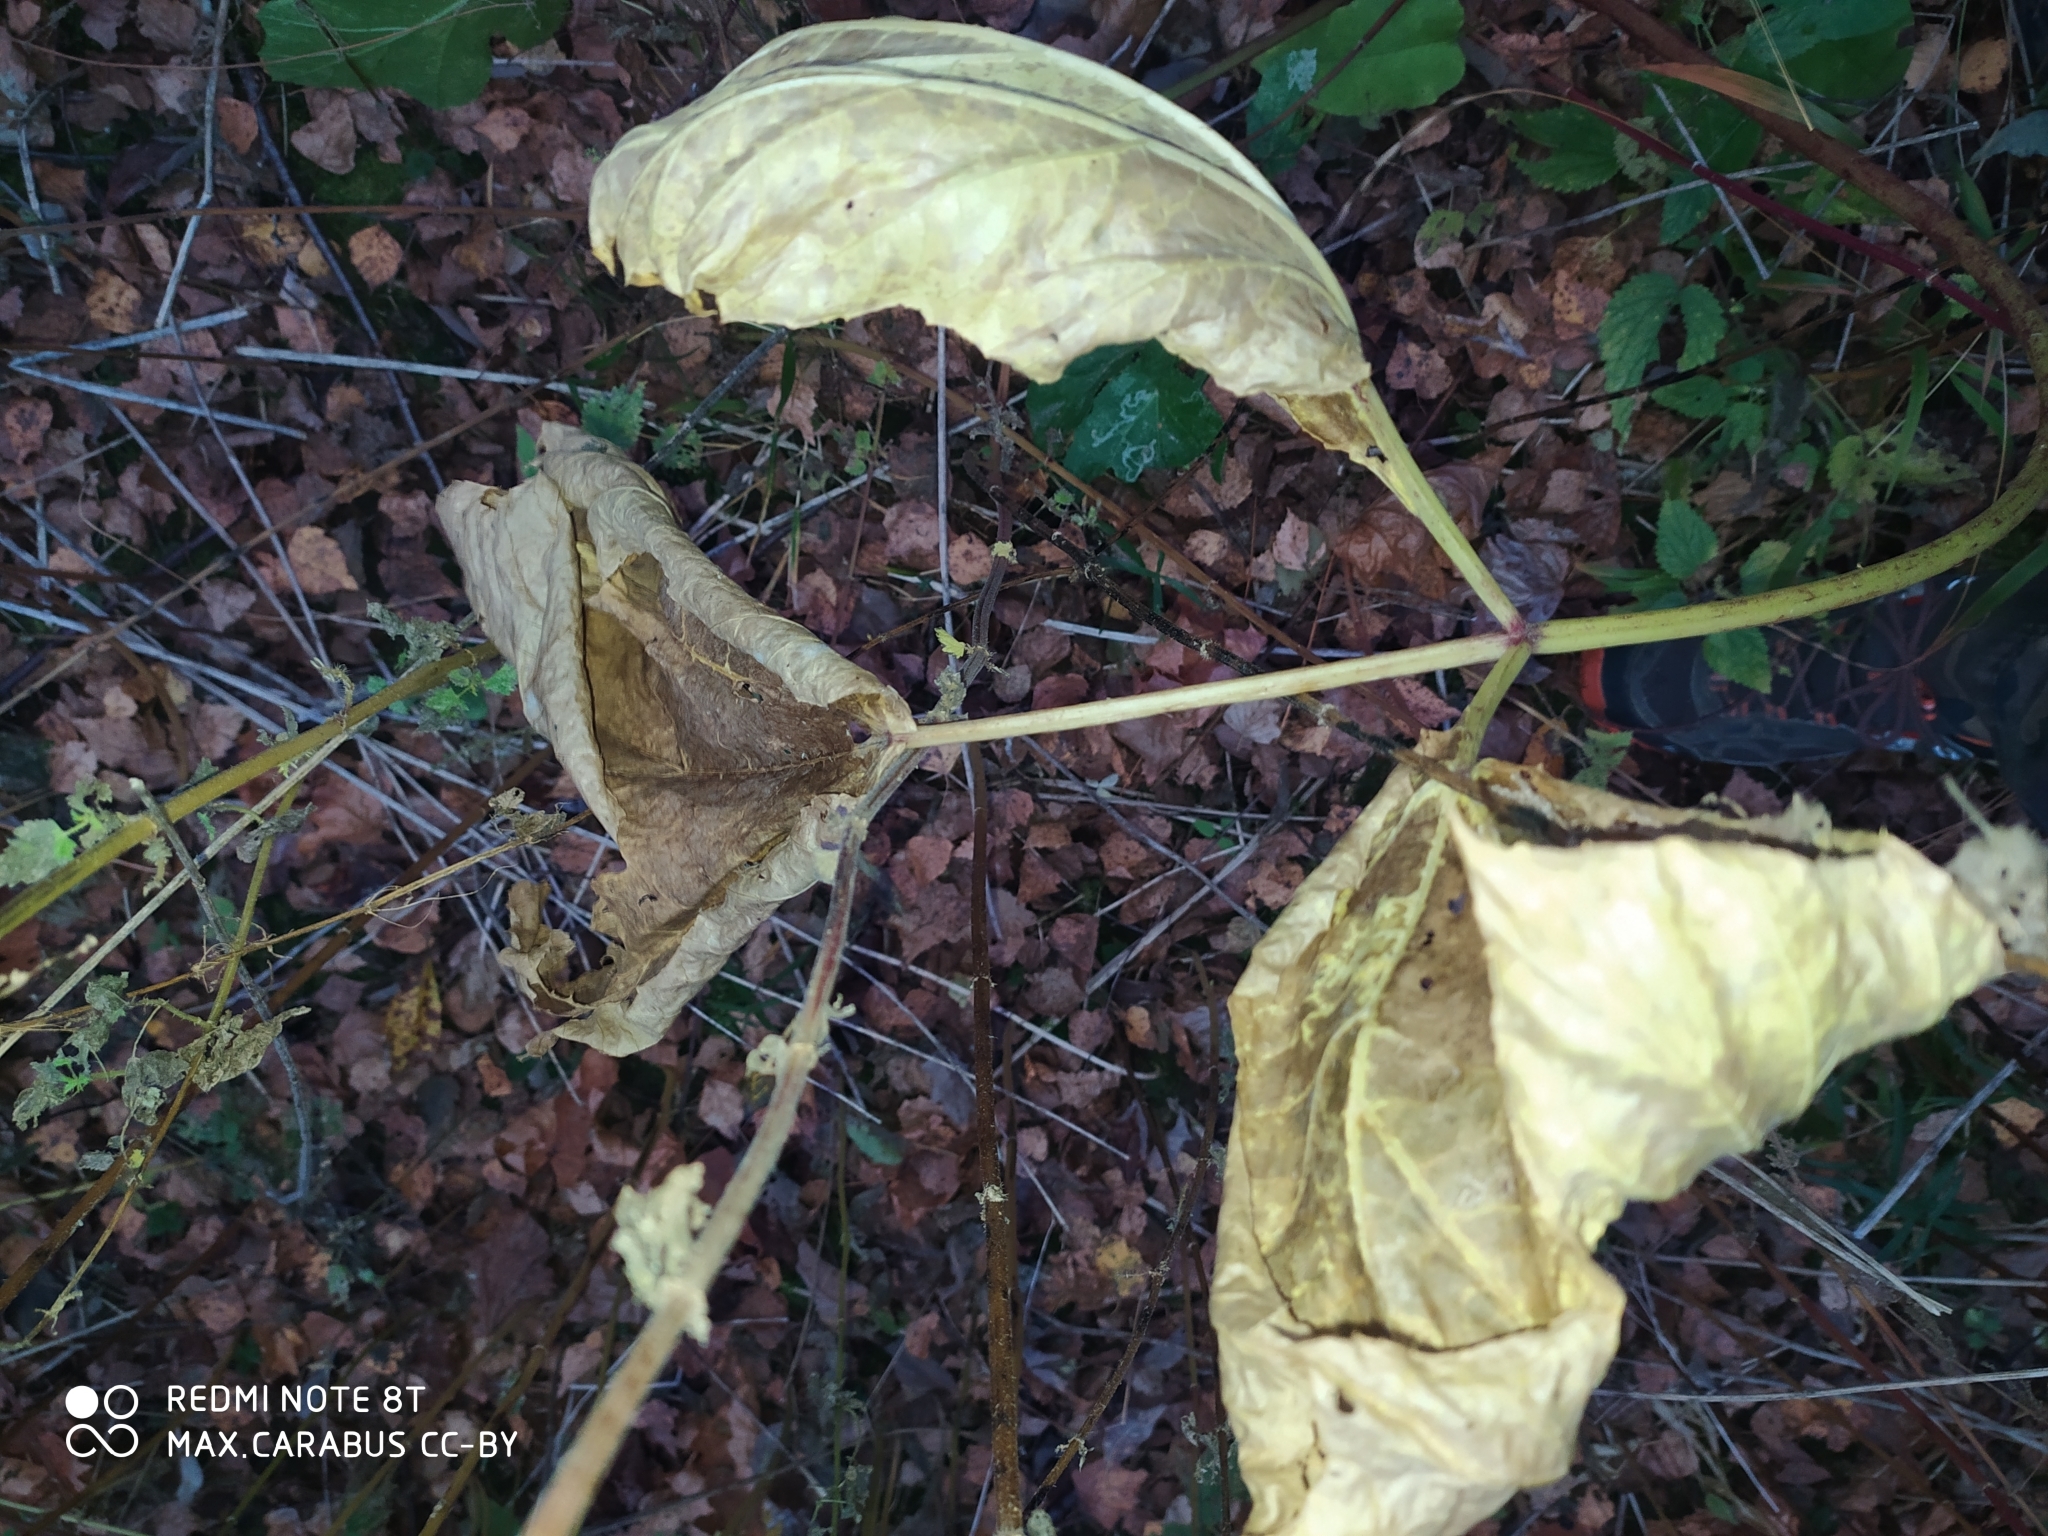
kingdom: Plantae
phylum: Tracheophyta
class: Magnoliopsida
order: Apiales
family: Apiaceae
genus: Heracleum
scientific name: Heracleum sosnowskyi
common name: Sosnowsky's hogweed
